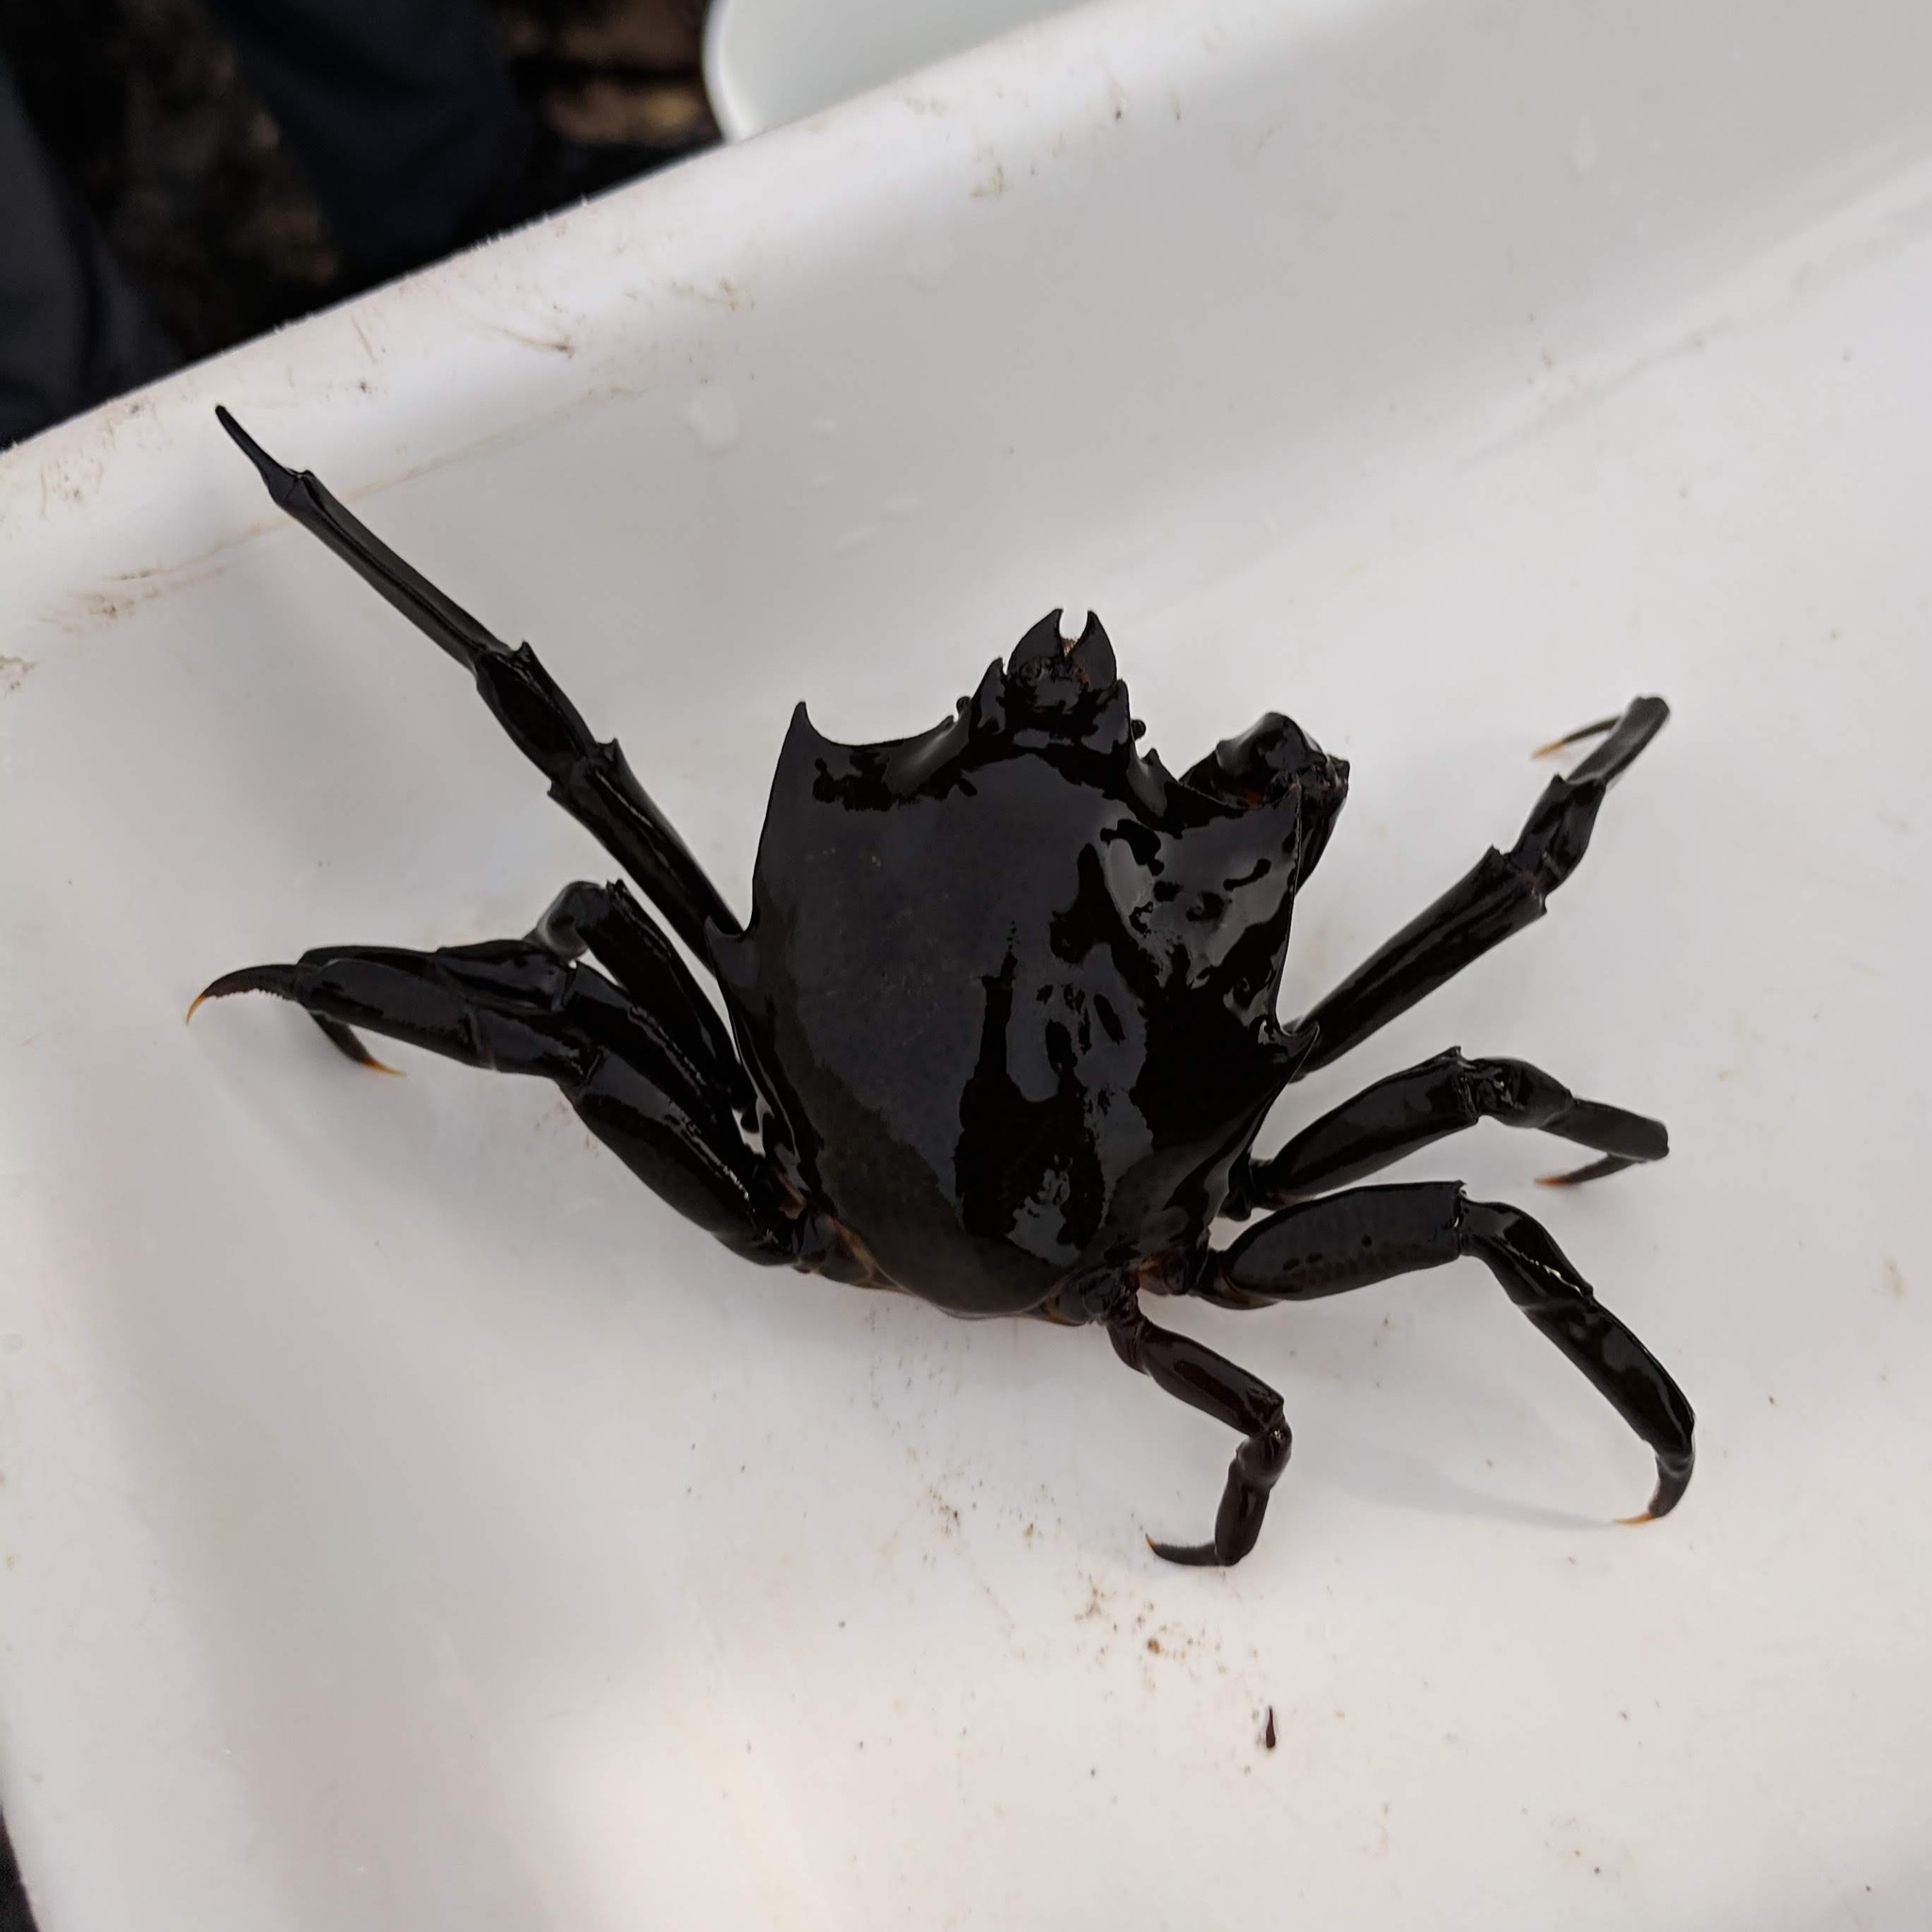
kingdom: Animalia
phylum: Arthropoda
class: Malacostraca
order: Decapoda
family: Epialtidae
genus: Pugettia
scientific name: Pugettia producta
